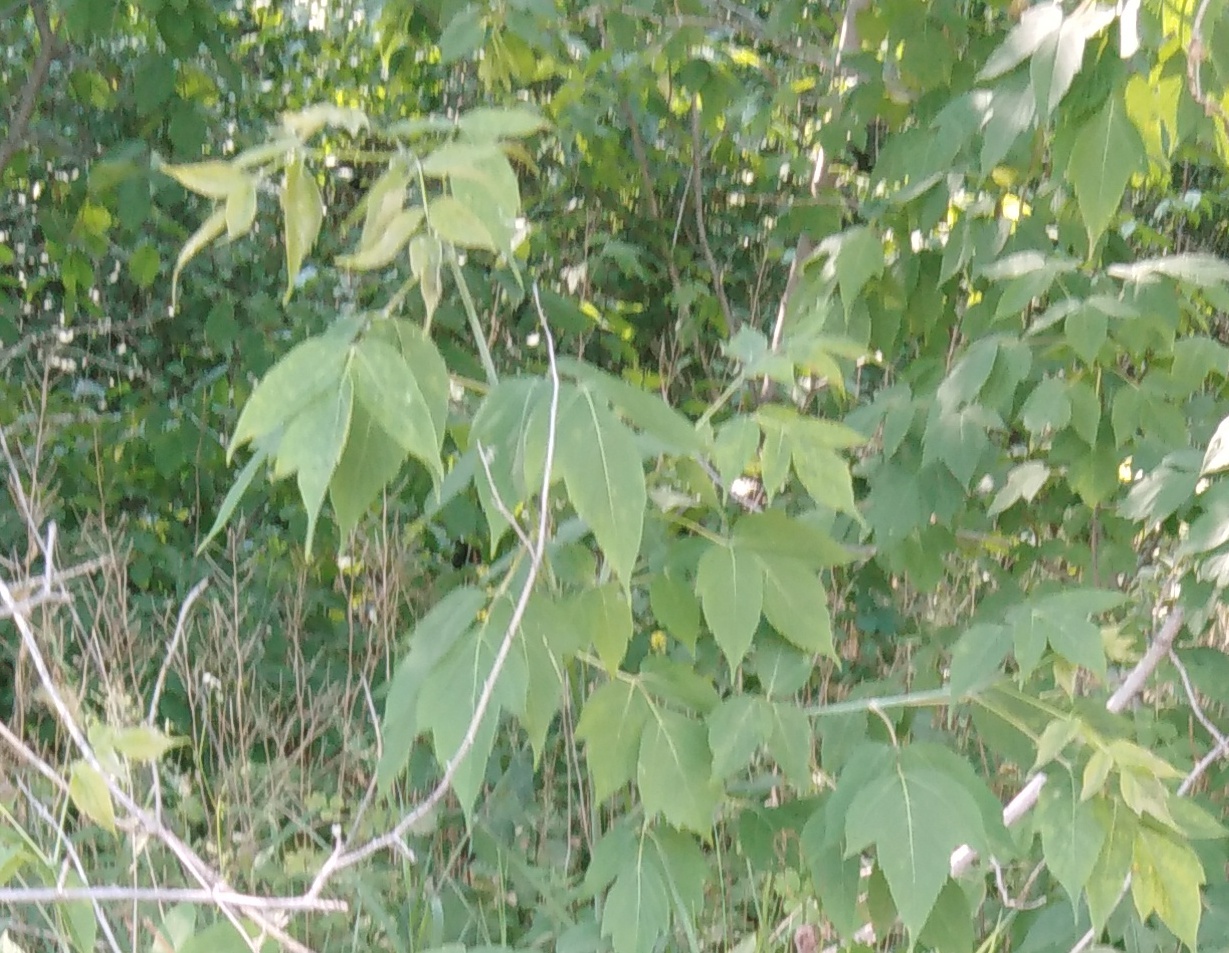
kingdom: Plantae
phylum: Tracheophyta
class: Magnoliopsida
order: Sapindales
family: Sapindaceae
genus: Acer
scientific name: Acer negundo
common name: Ashleaf maple
